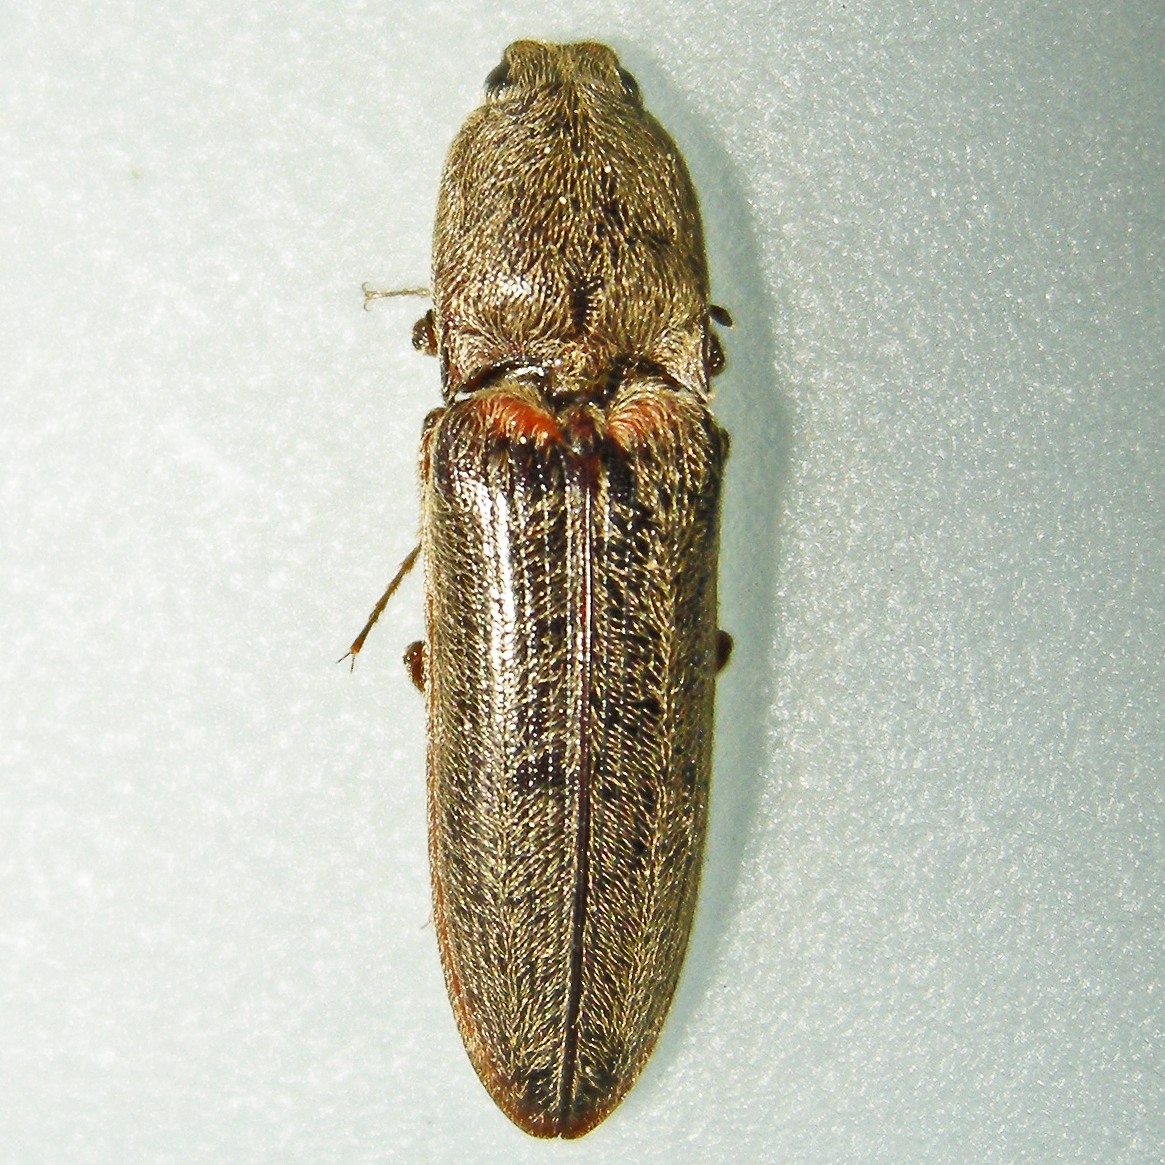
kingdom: Animalia
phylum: Arthropoda
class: Insecta
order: Coleoptera
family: Elateridae
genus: Gambrinus
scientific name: Gambrinus griseus
